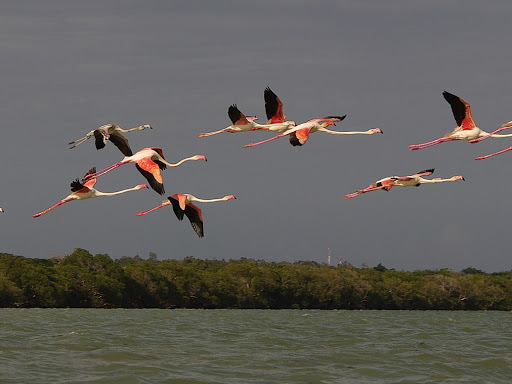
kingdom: Animalia
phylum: Chordata
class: Aves
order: Phoenicopteriformes
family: Phoenicopteridae
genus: Phoenicopterus
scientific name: Phoenicopterus roseus
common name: Greater flamingo
